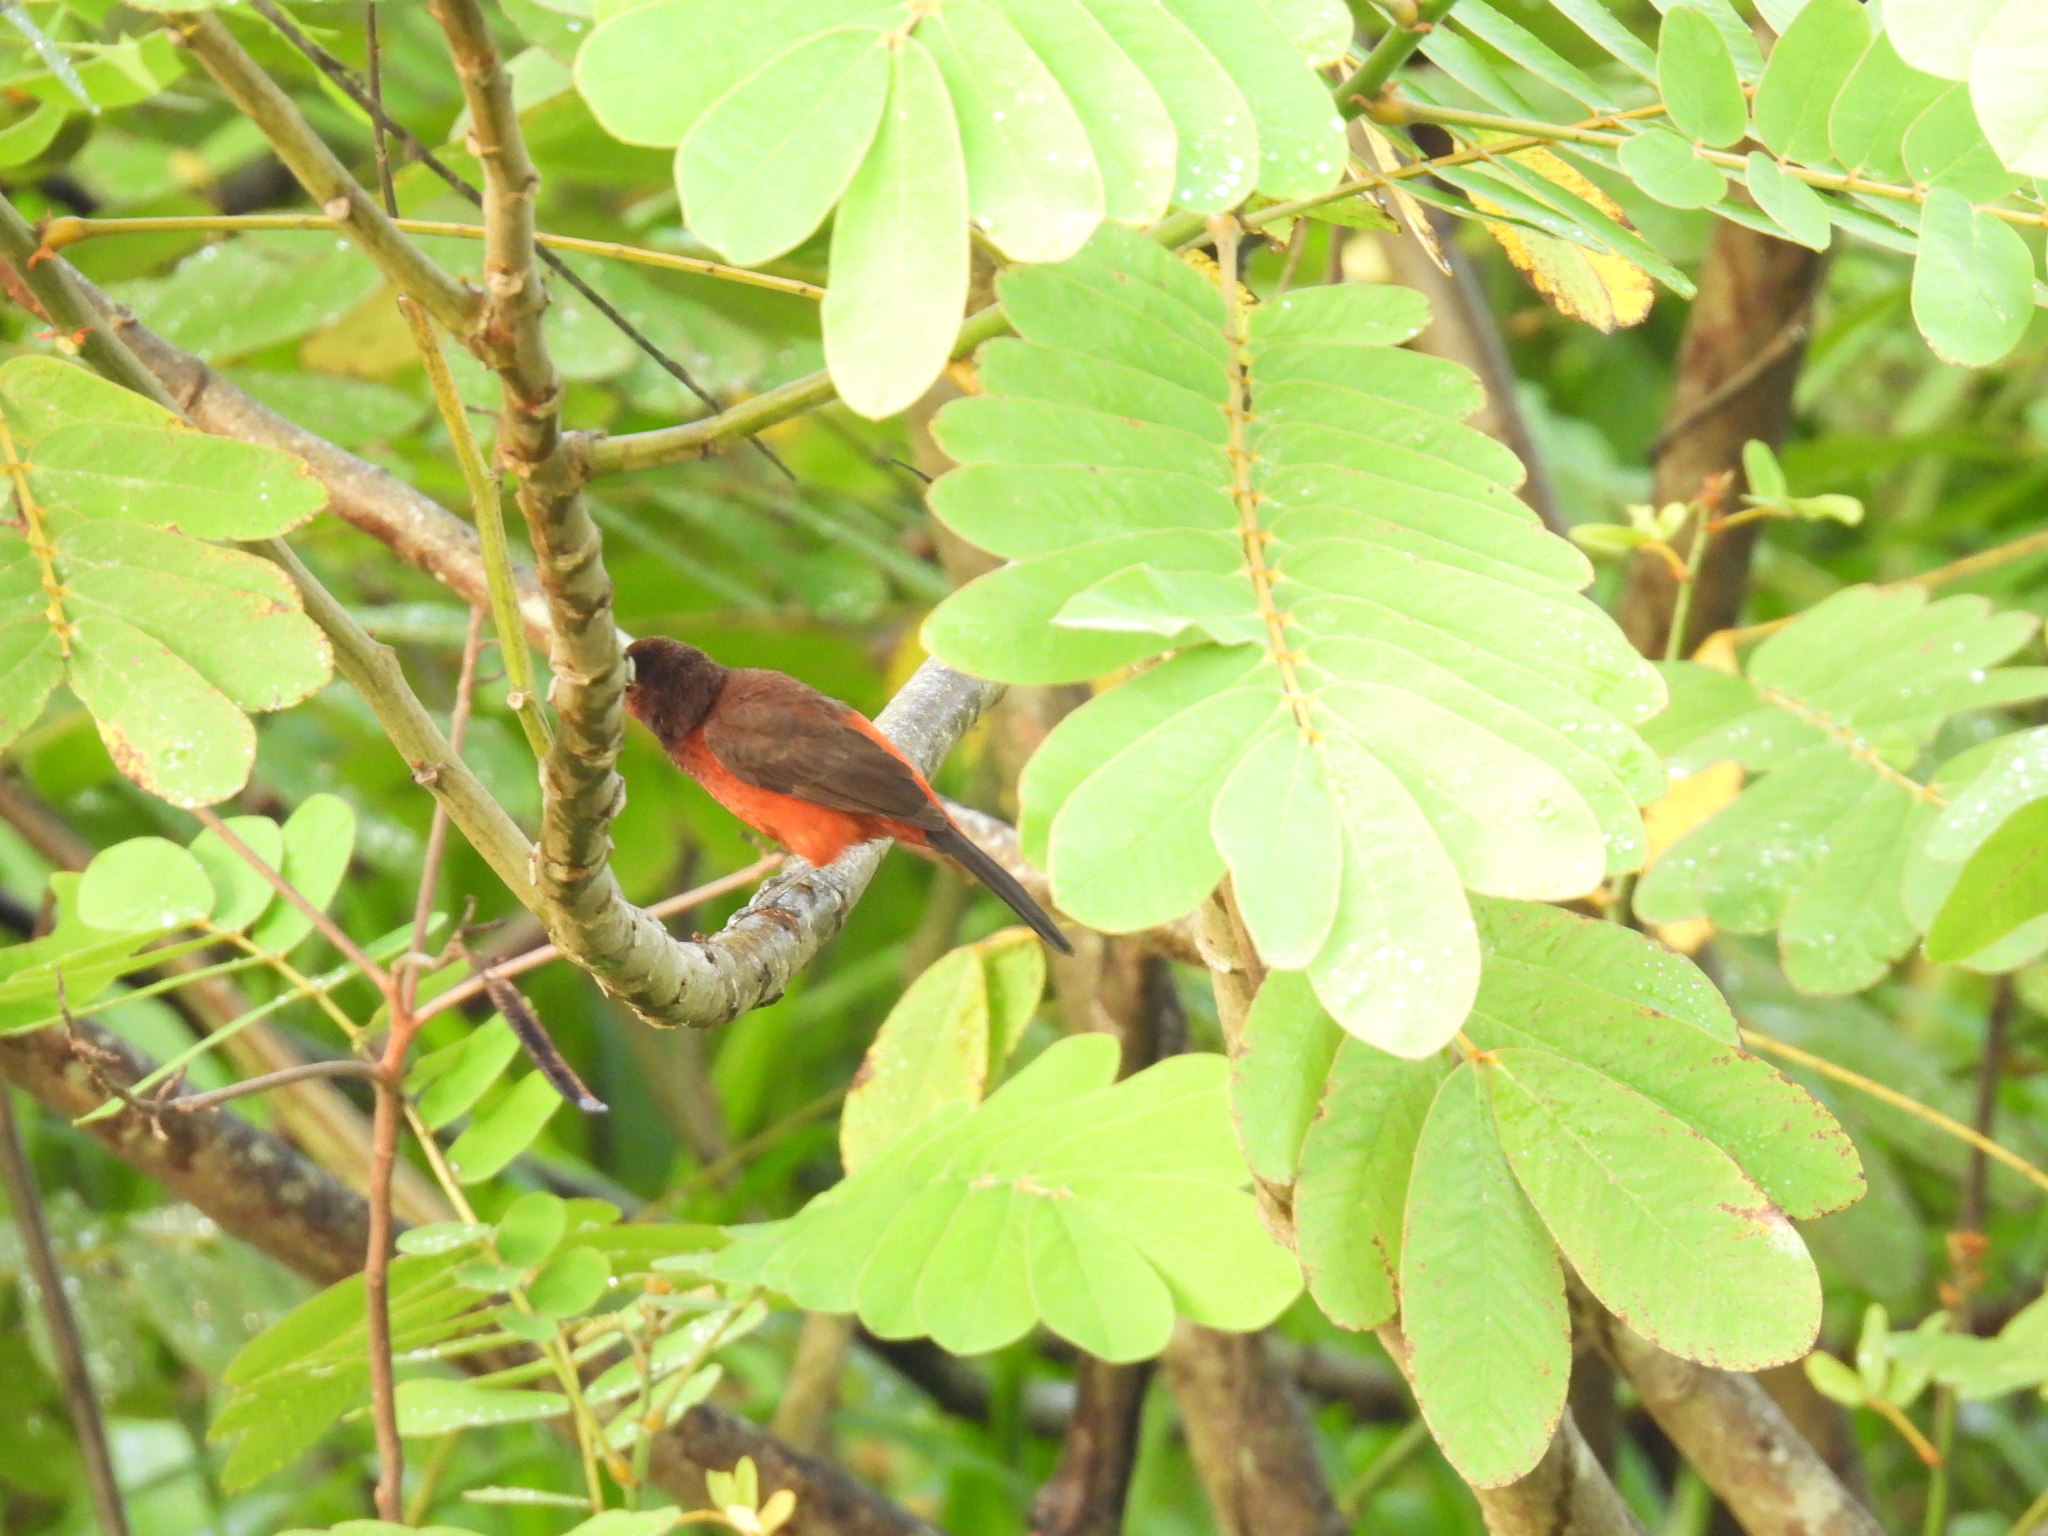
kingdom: Animalia
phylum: Chordata
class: Aves
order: Passeriformes
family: Thraupidae
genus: Ramphocelus
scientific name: Ramphocelus dimidiatus
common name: Crimson-backed tanager
